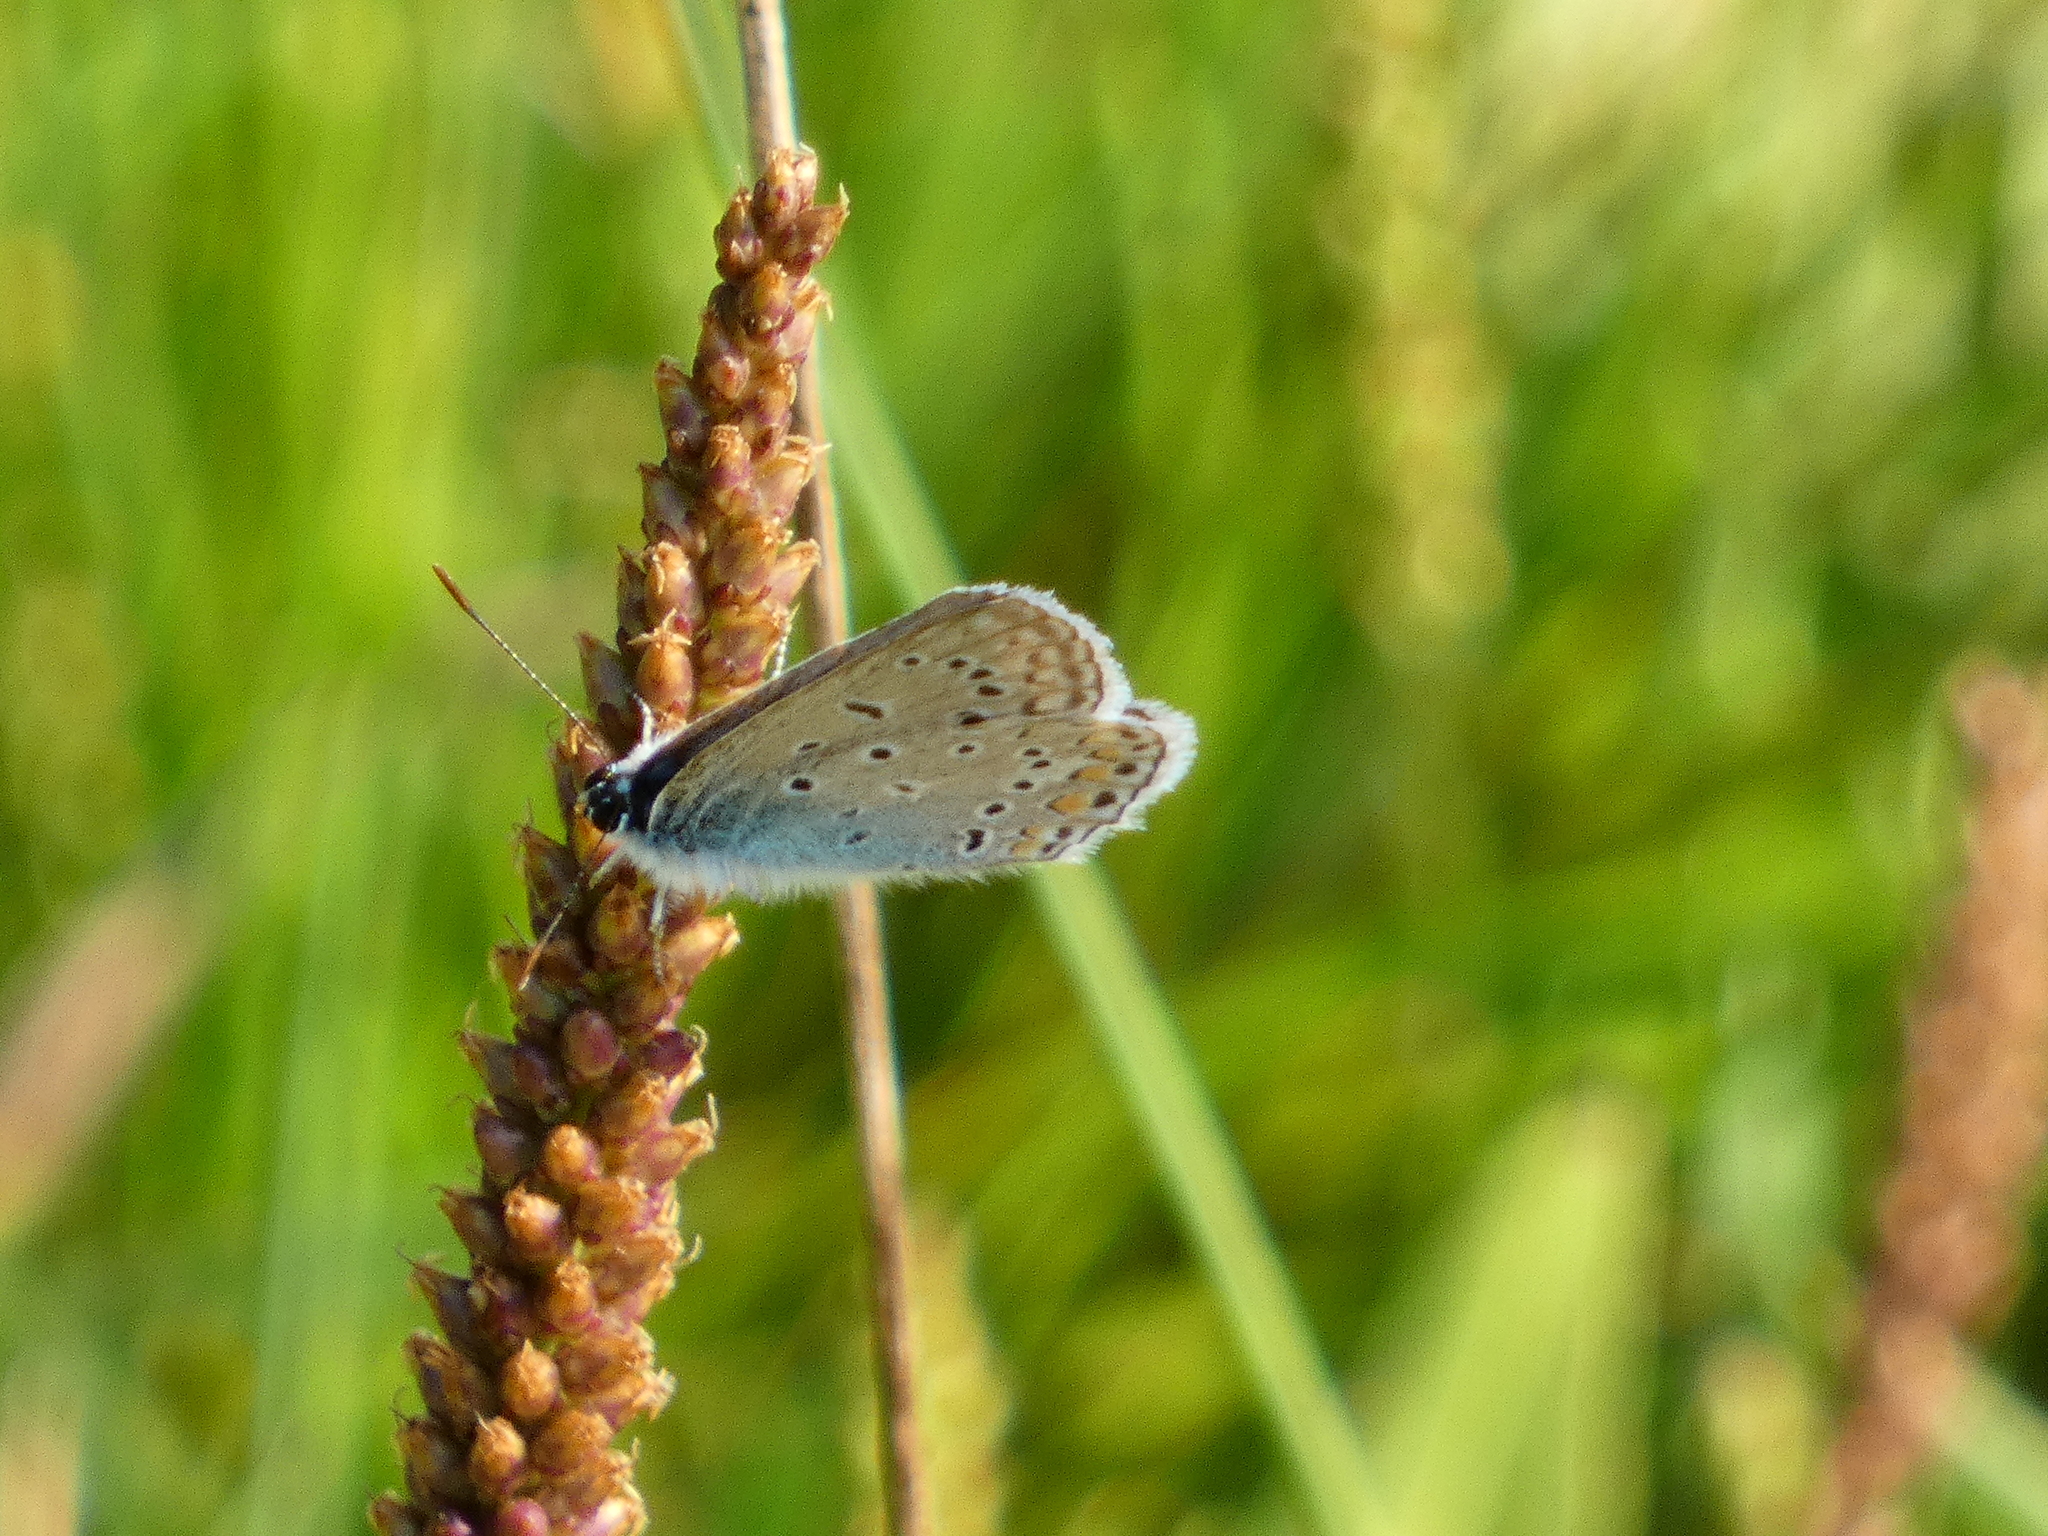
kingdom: Animalia
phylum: Arthropoda
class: Insecta
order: Lepidoptera
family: Lycaenidae
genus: Polyommatus
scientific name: Polyommatus icarus
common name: Common blue
